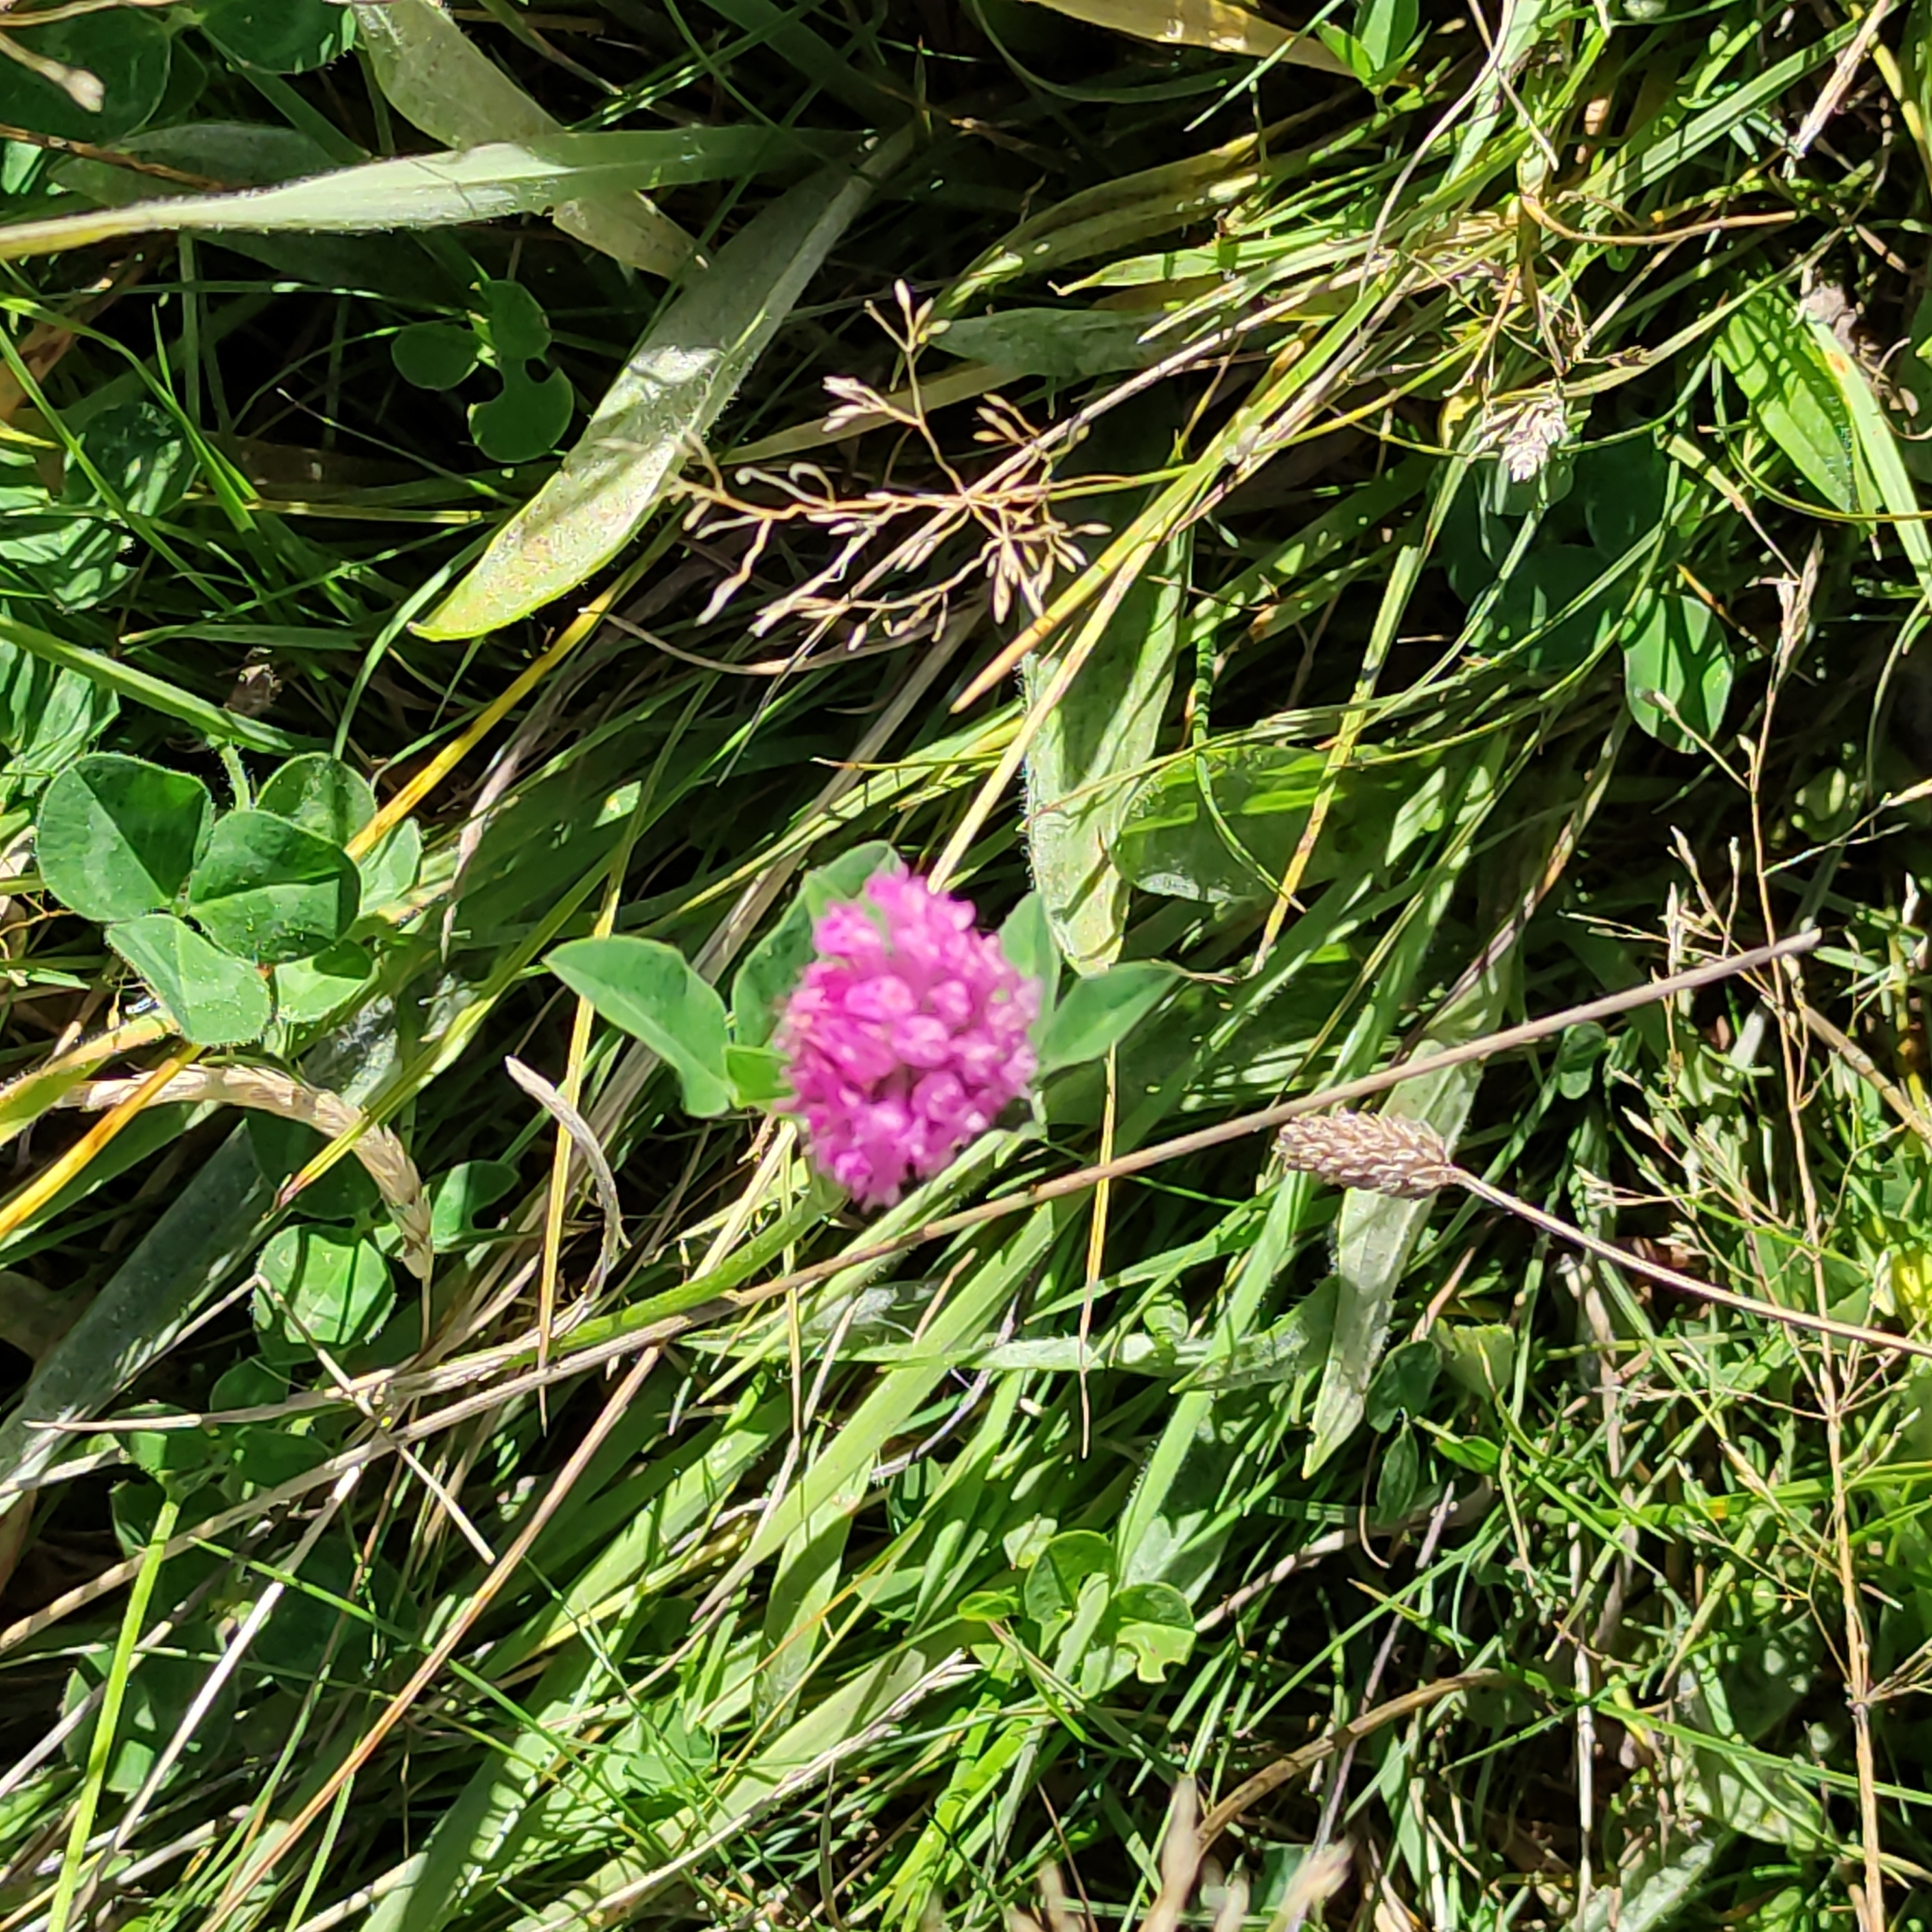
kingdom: Plantae
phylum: Tracheophyta
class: Magnoliopsida
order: Fabales
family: Fabaceae
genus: Trifolium
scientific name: Trifolium pratense
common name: Red clover
